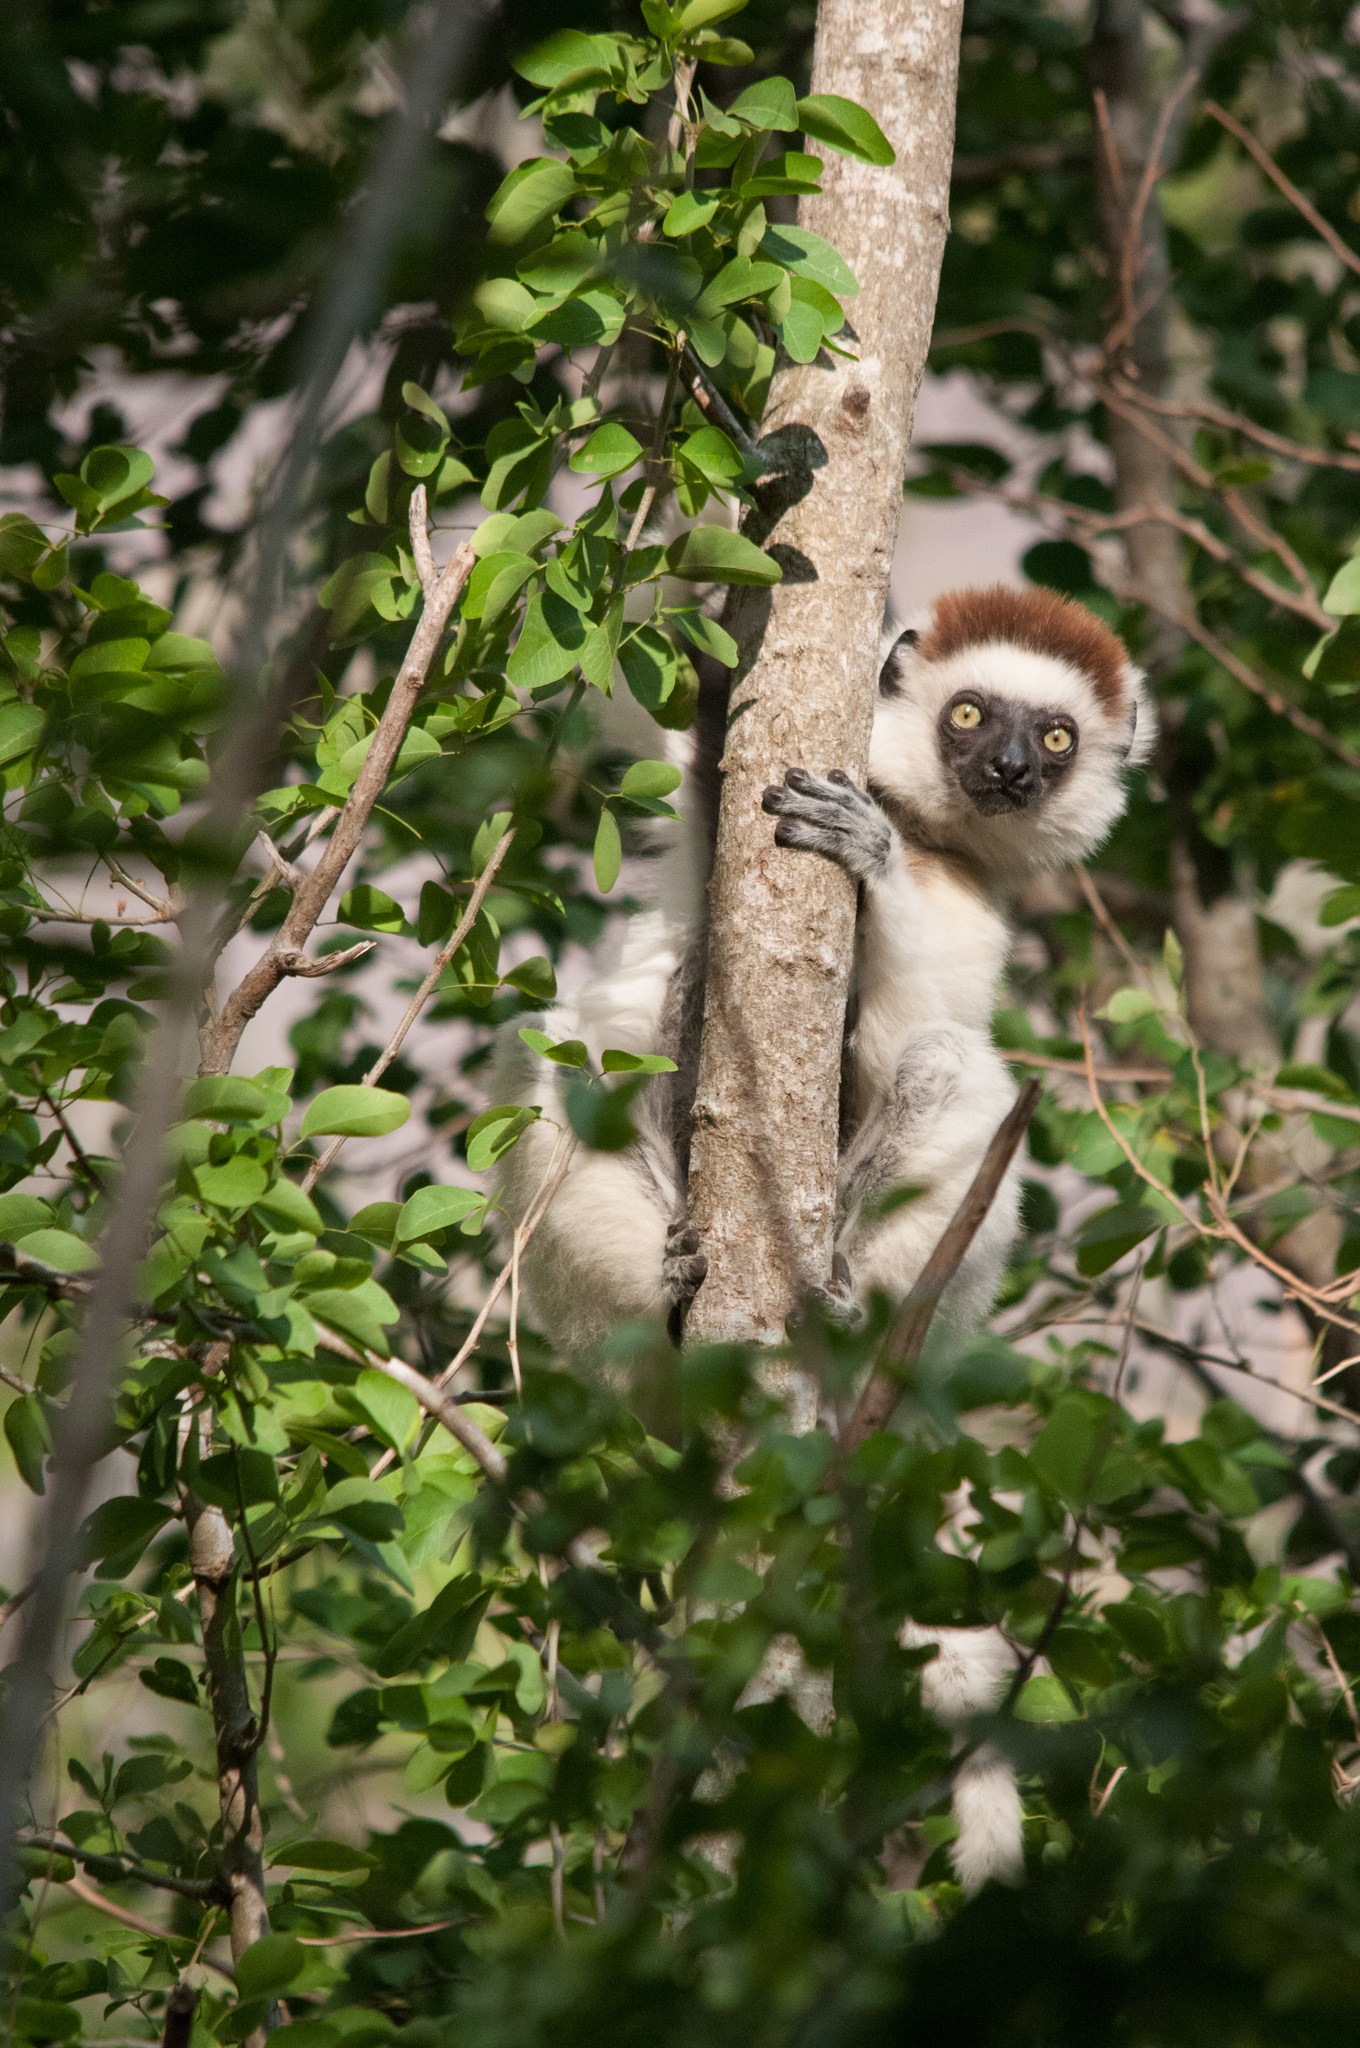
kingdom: Animalia
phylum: Chordata
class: Mammalia
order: Primates
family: Indriidae
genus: Propithecus
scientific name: Propithecus verreauxi
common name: Verreaux's sifaka
